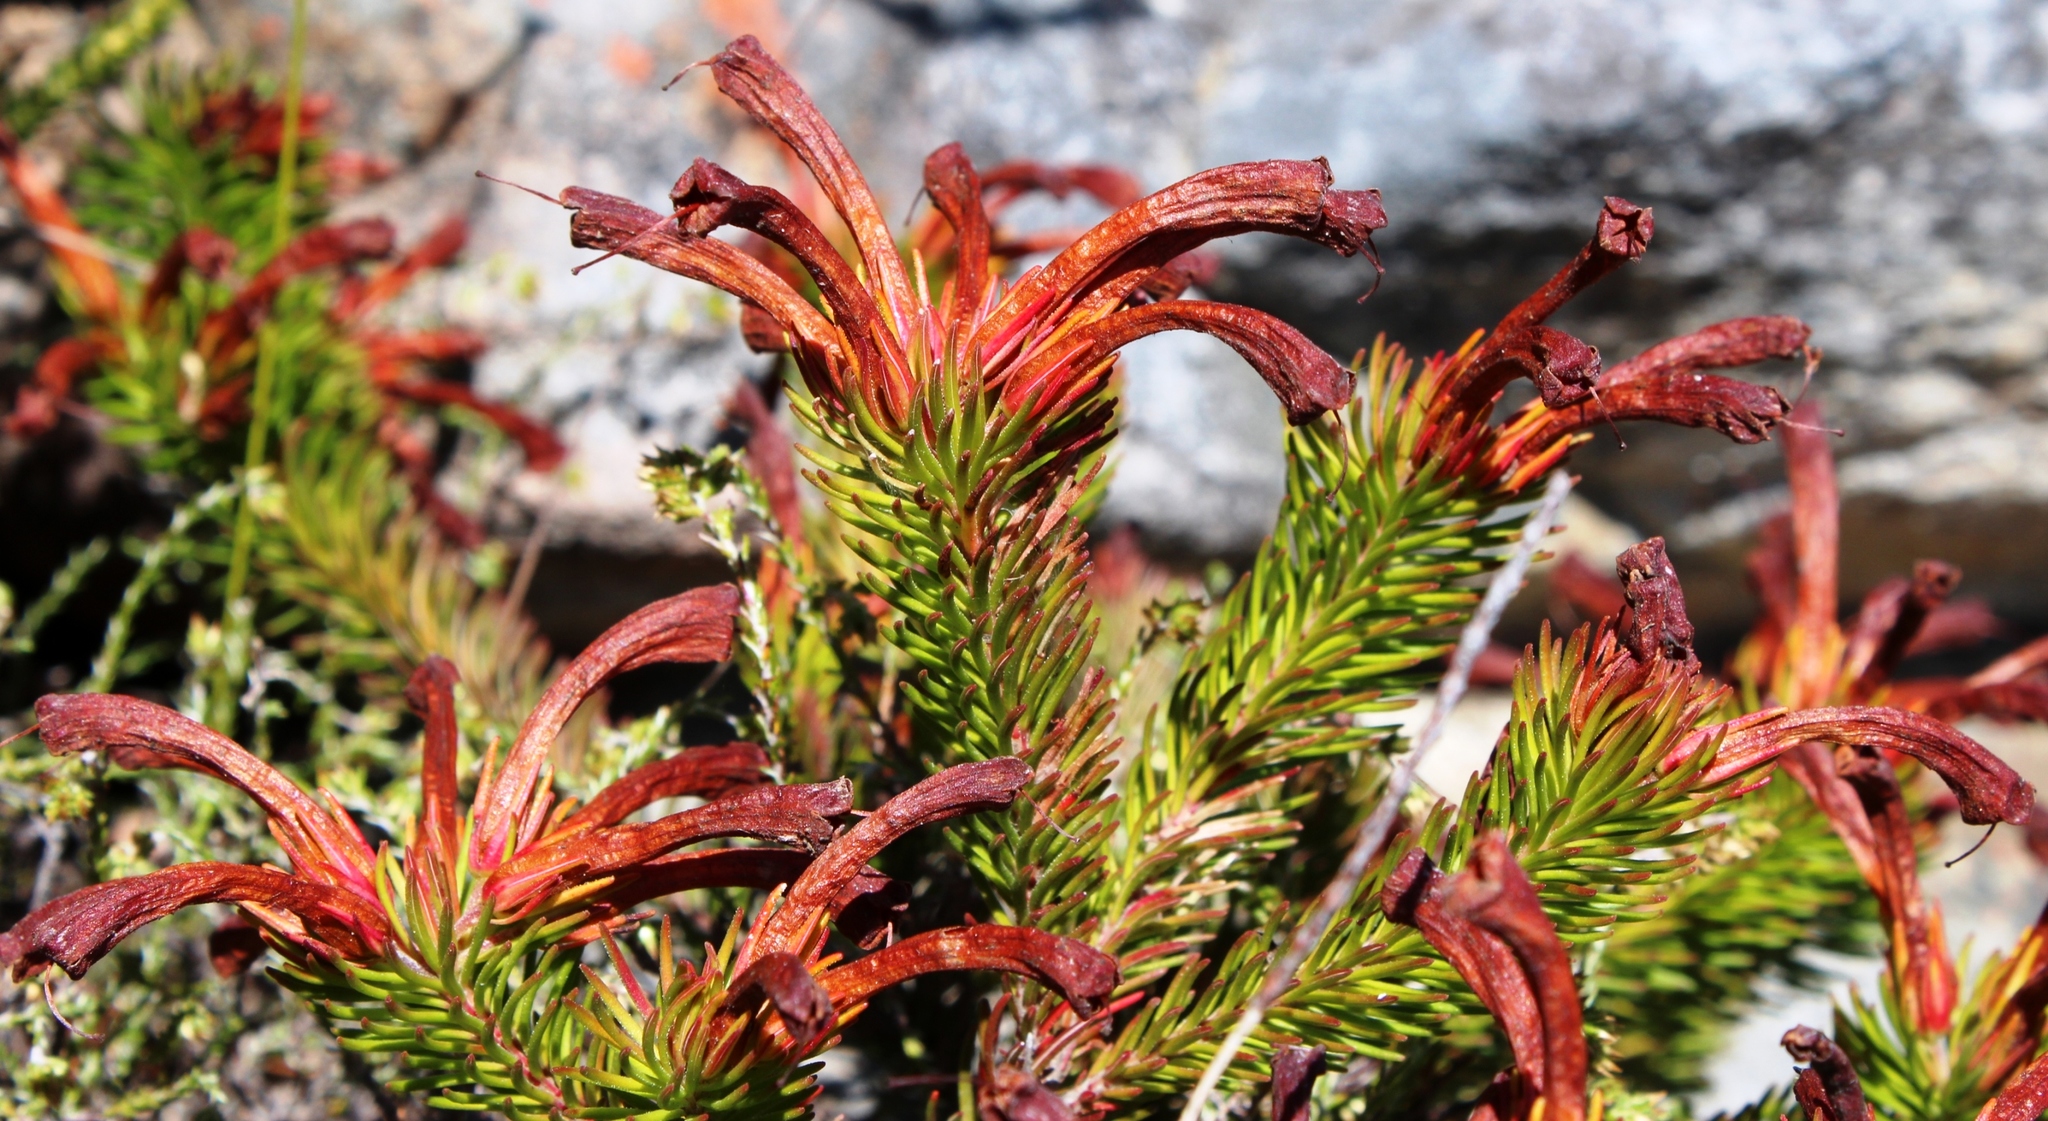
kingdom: Plantae
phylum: Tracheophyta
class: Magnoliopsida
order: Ericales
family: Ericaceae
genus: Erica
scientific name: Erica quadrisulcata
